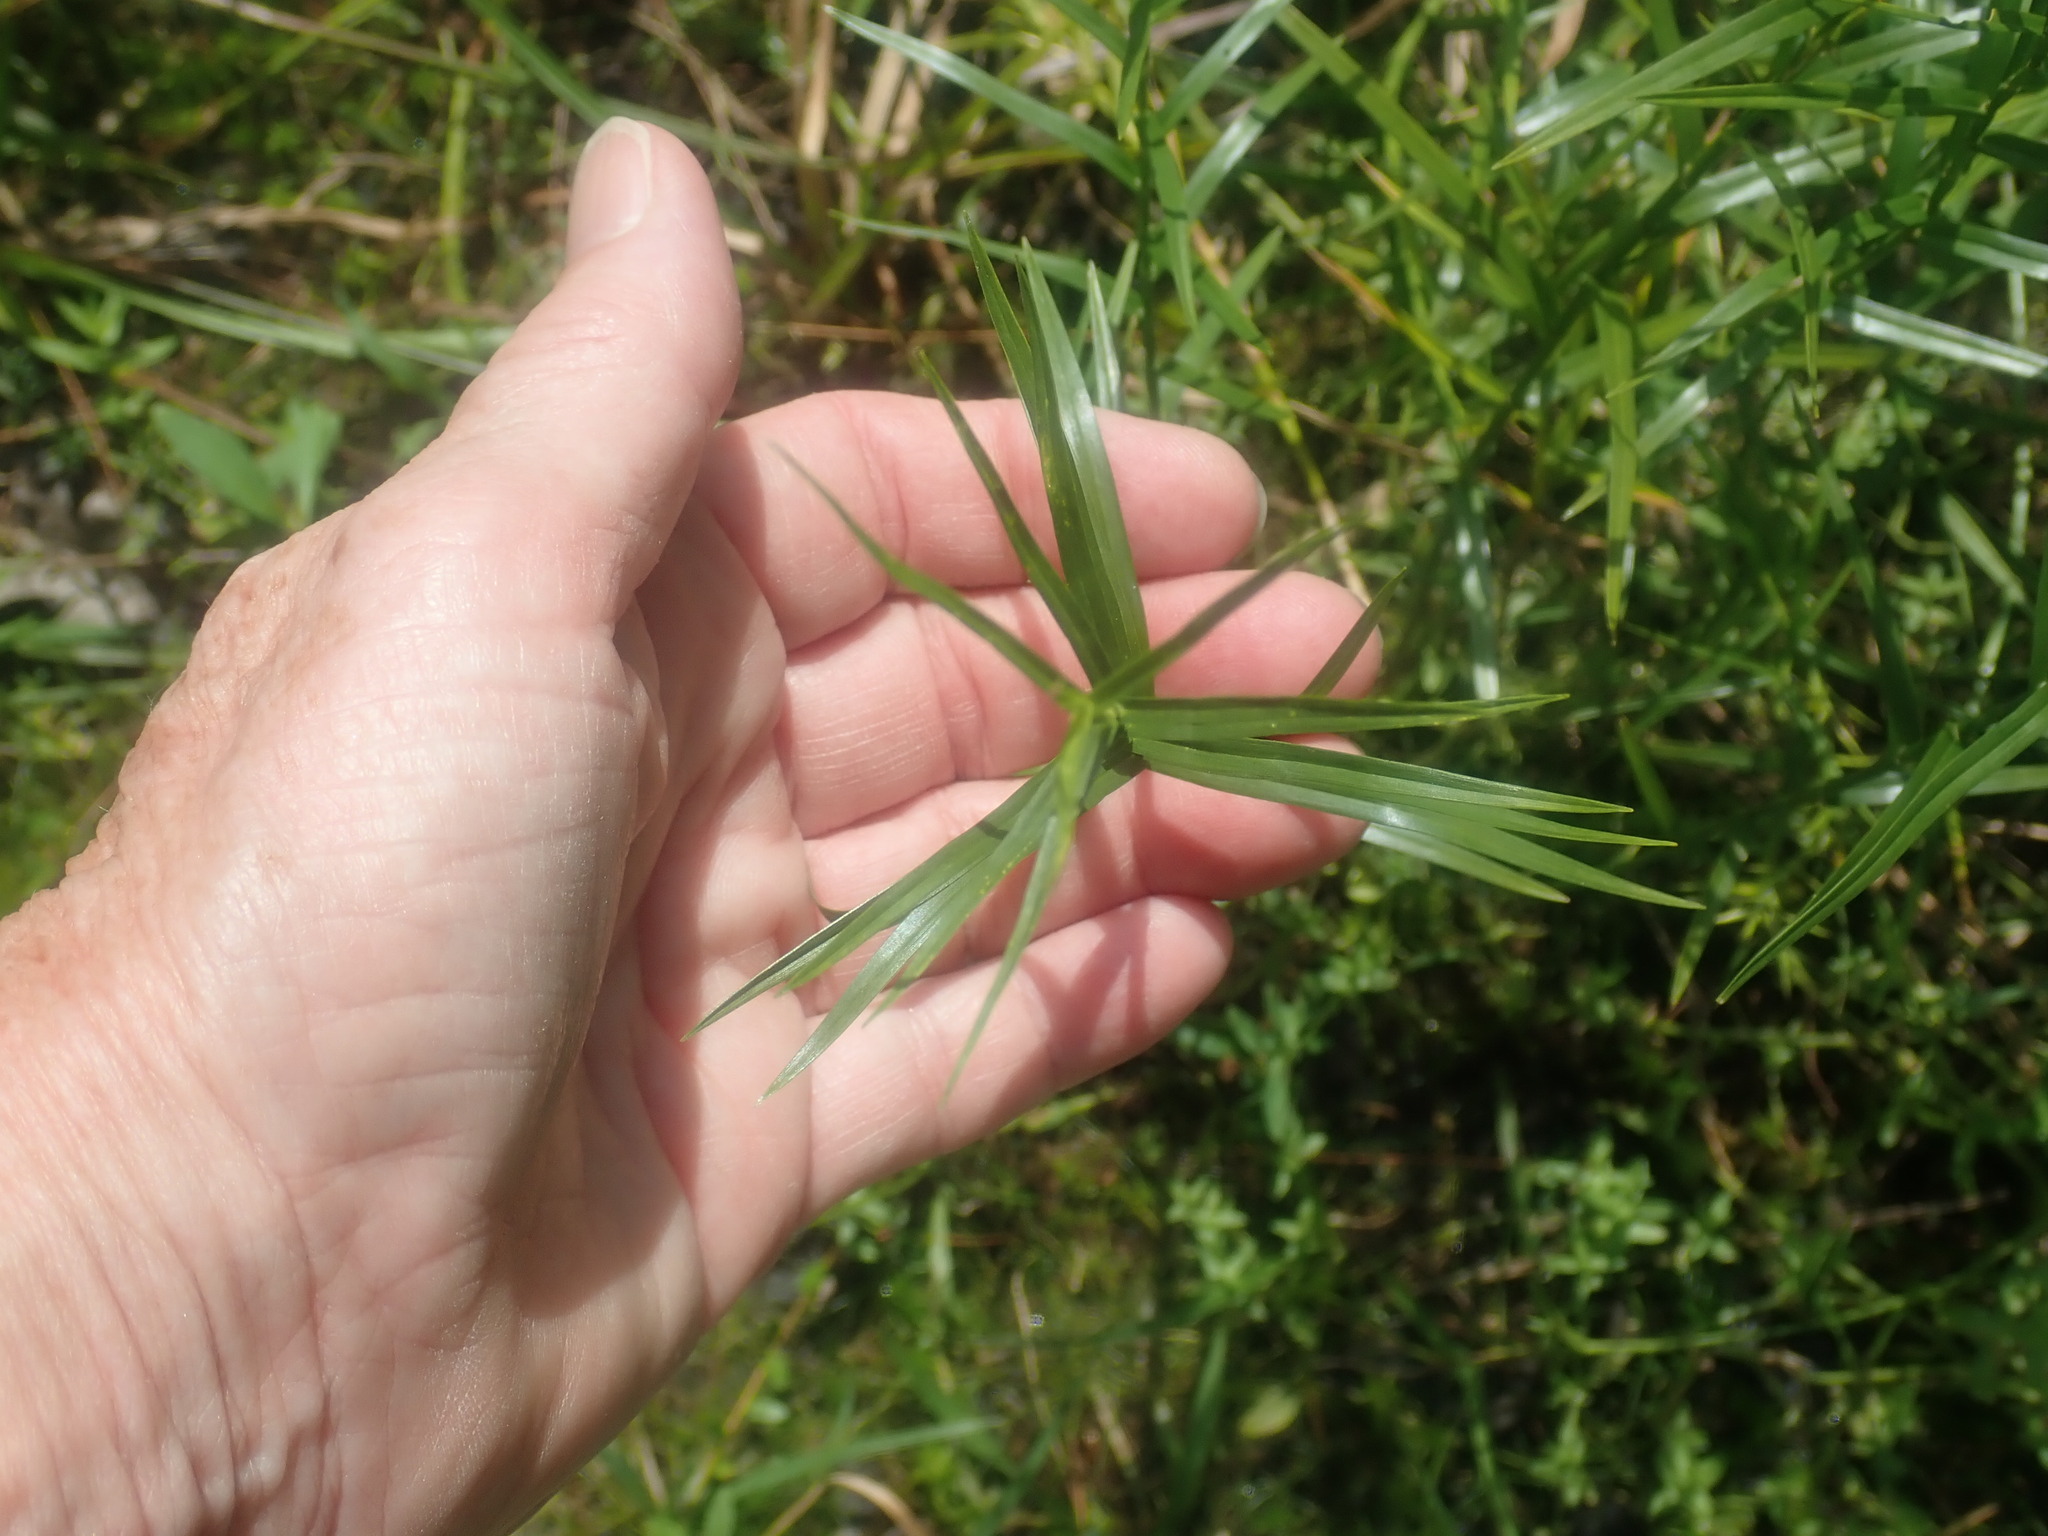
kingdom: Plantae
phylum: Tracheophyta
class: Liliopsida
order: Poales
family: Cyperaceae
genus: Dulichium
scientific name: Dulichium arundinaceum
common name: Three-way sedge
